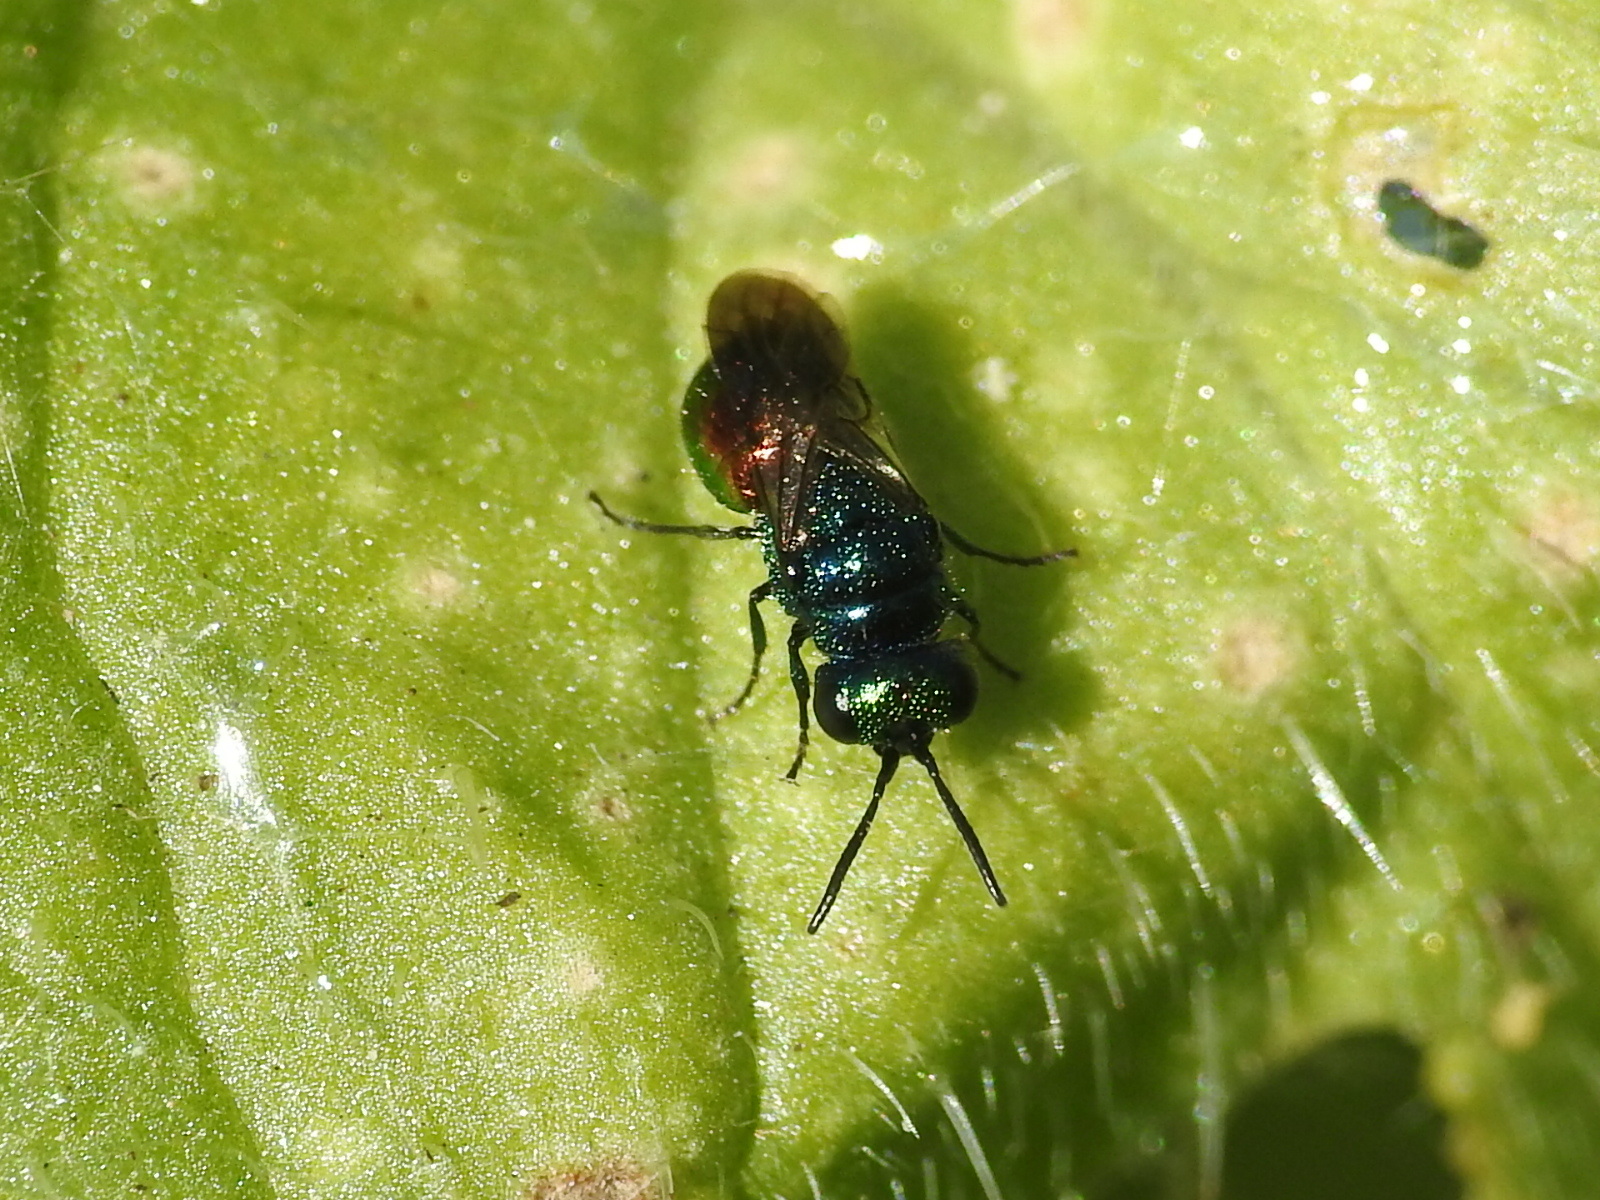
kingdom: Animalia
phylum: Arthropoda
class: Insecta
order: Hymenoptera
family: Chrysididae
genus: Pseudomalus
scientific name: Pseudomalus auratus
